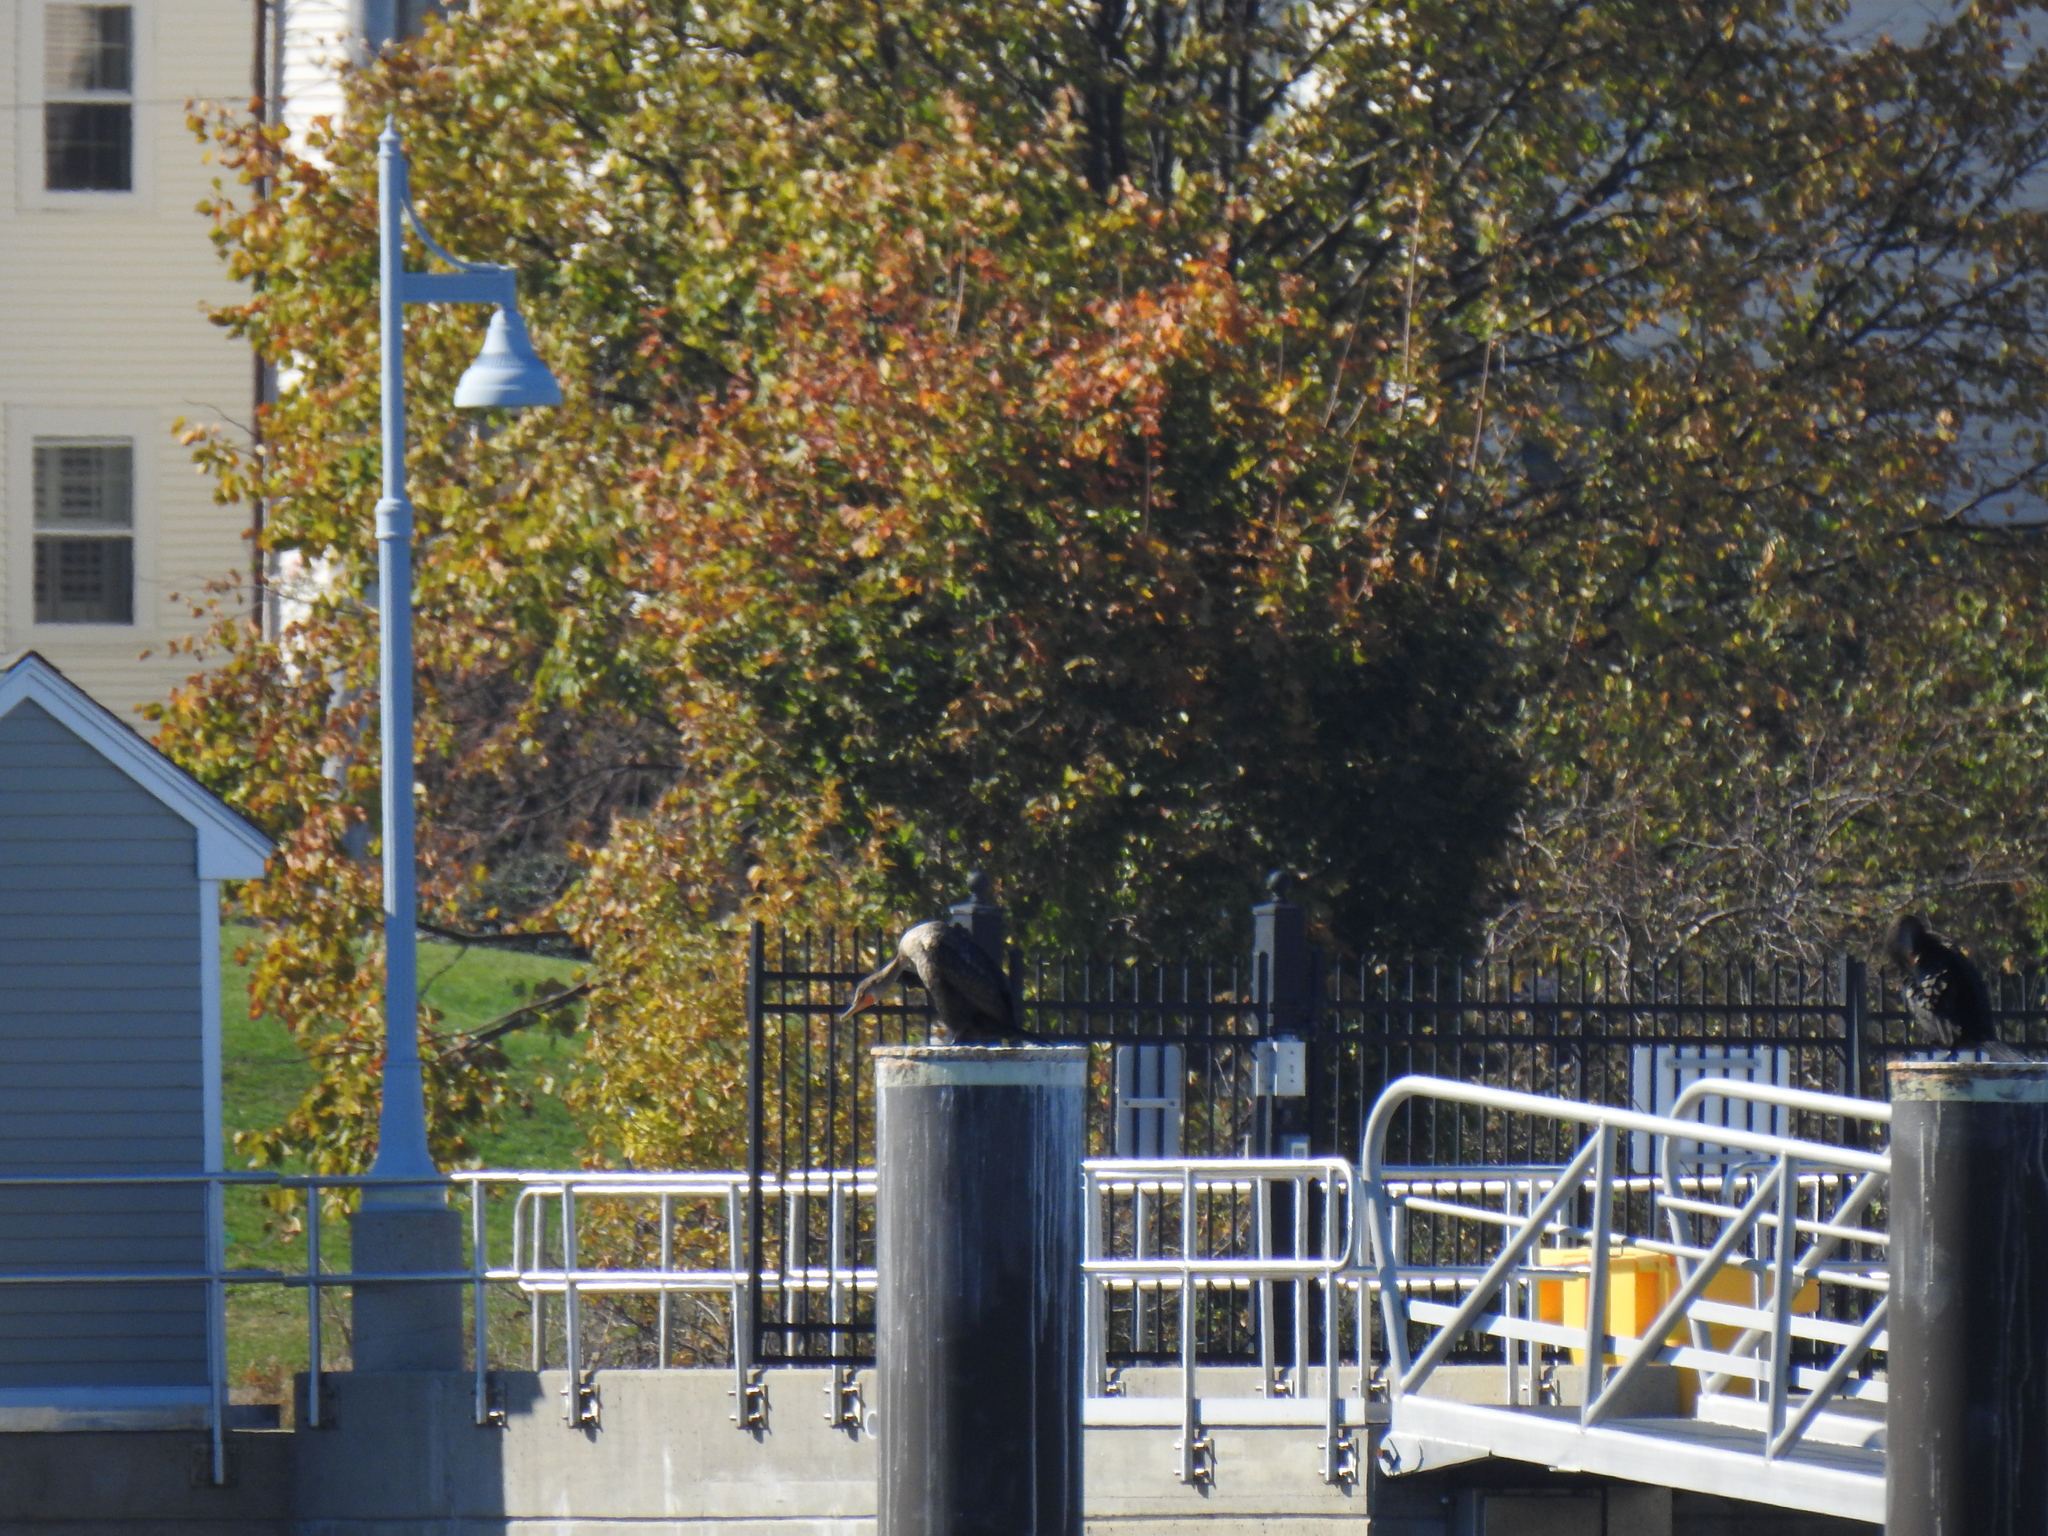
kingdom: Animalia
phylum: Chordata
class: Aves
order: Suliformes
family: Phalacrocoracidae
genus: Phalacrocorax
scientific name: Phalacrocorax auritus
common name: Double-crested cormorant
